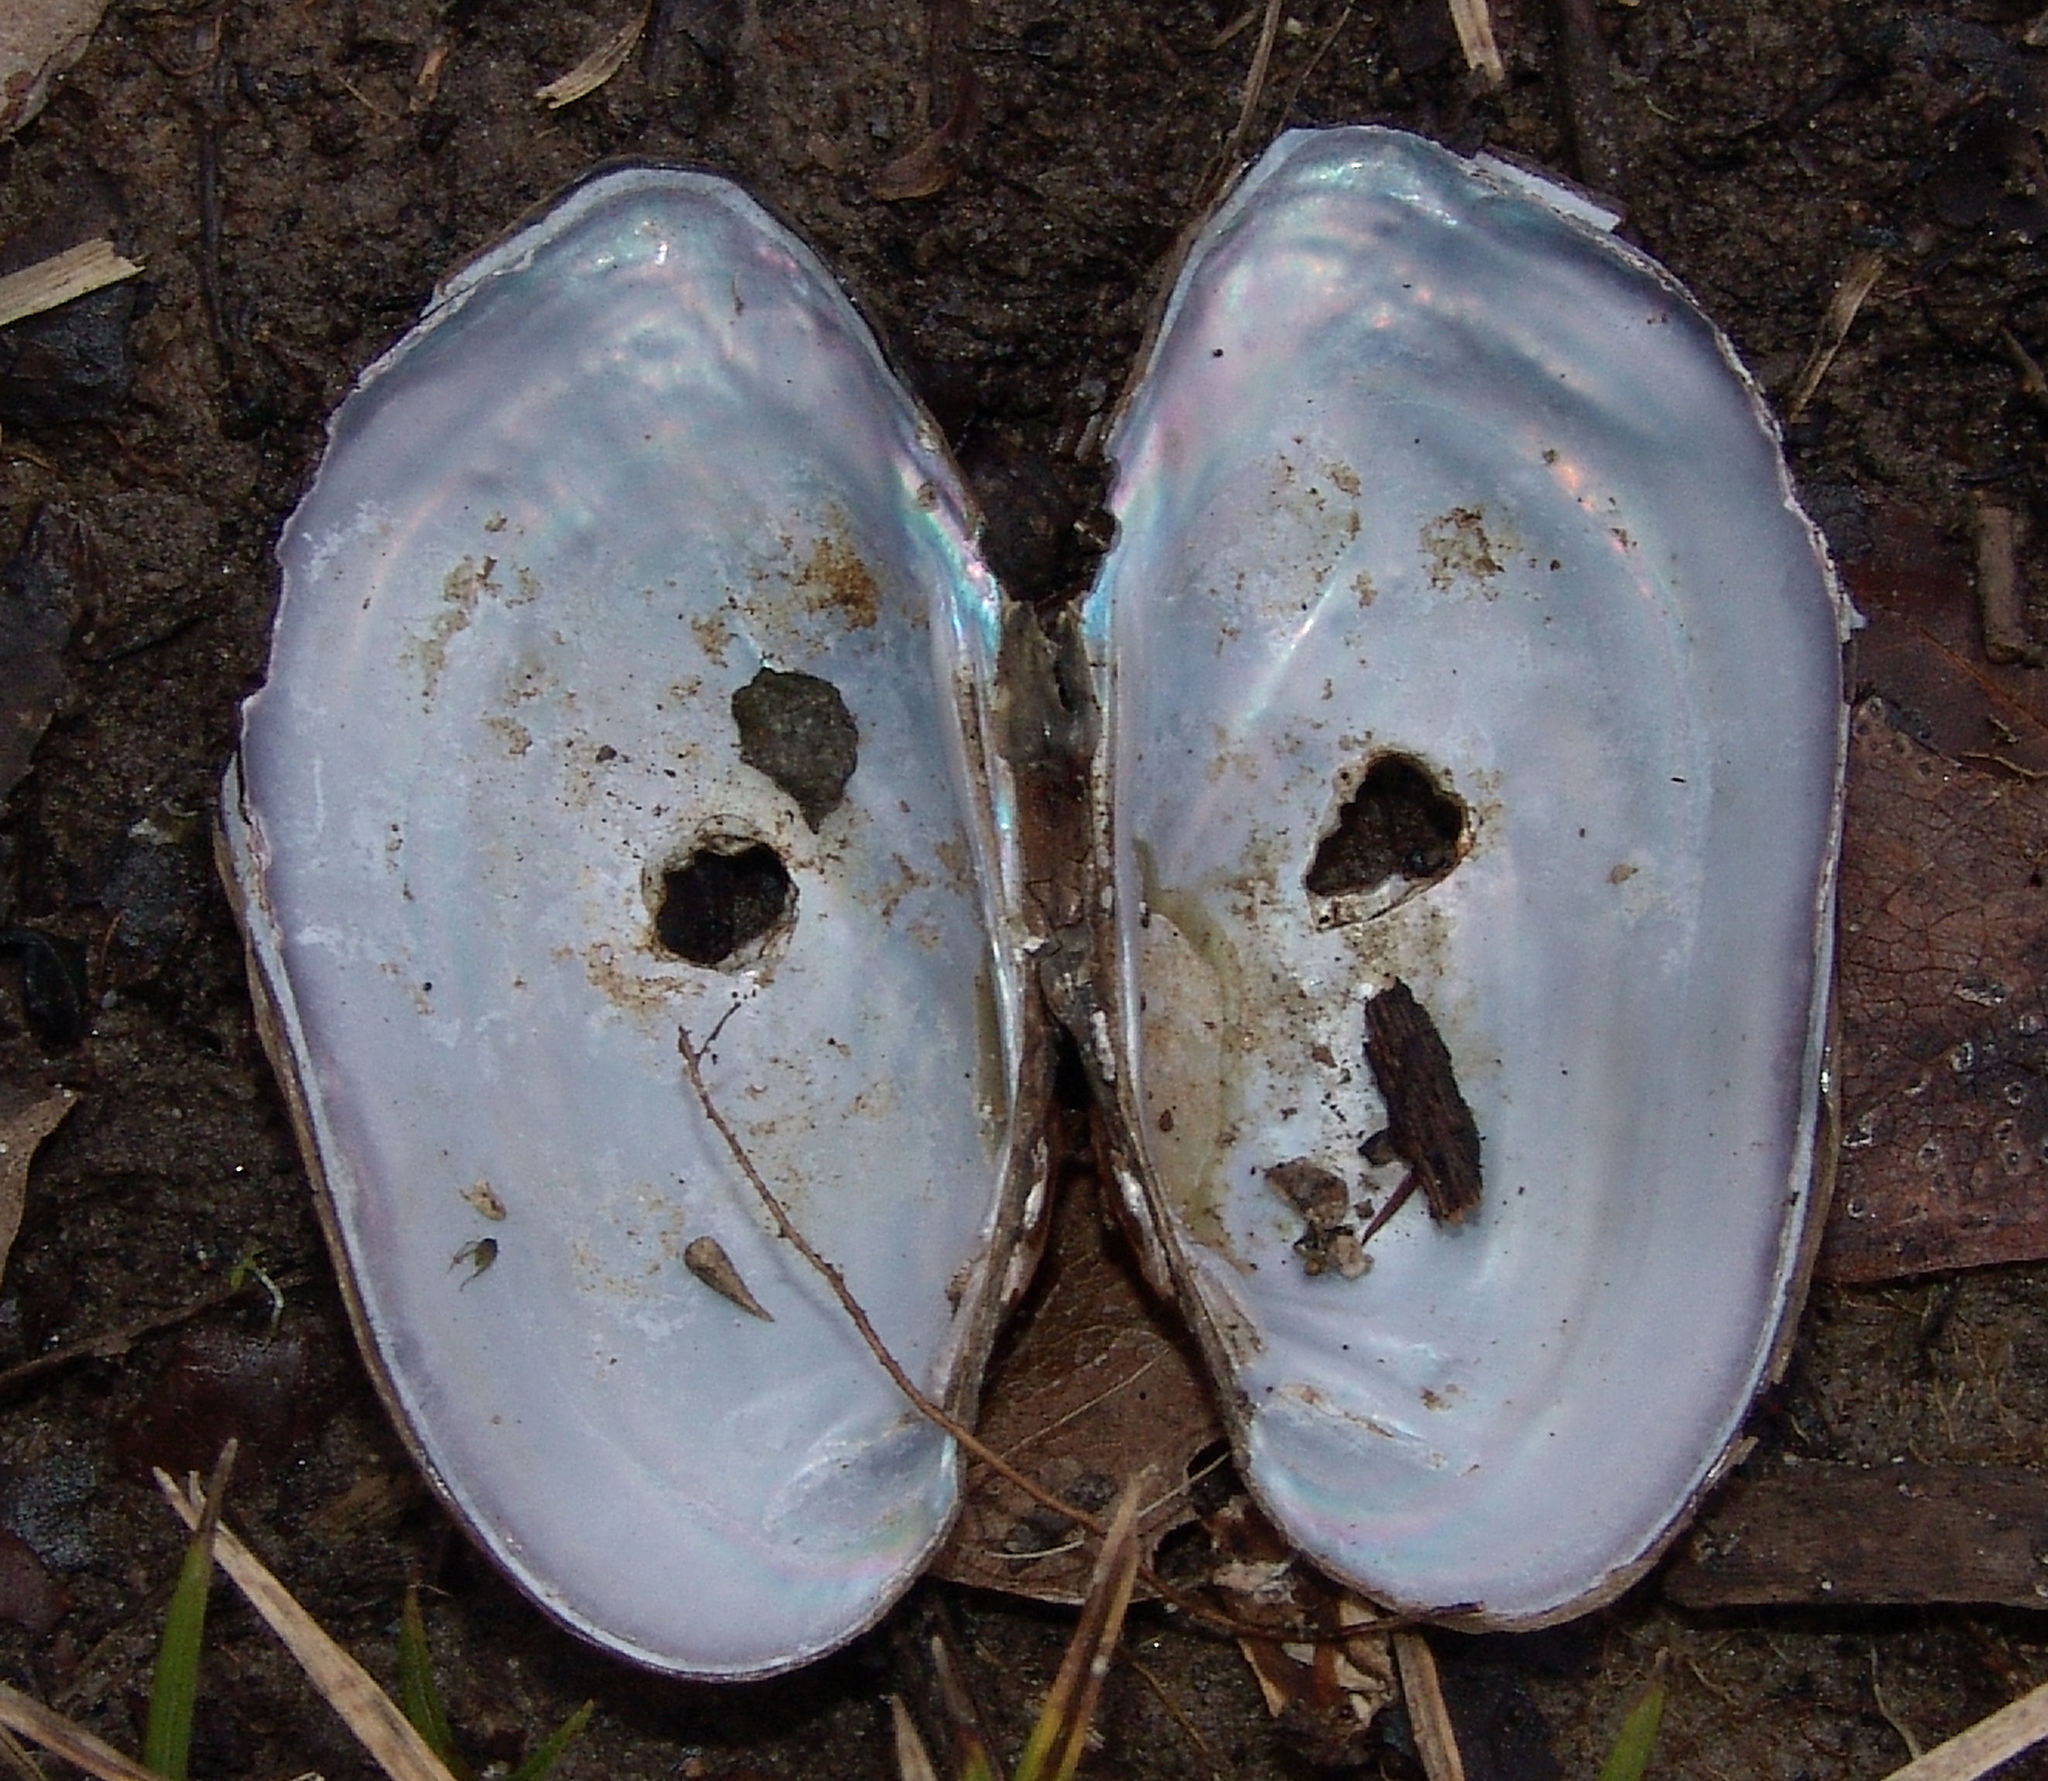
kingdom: Animalia
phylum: Mollusca
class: Bivalvia
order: Unionida
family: Unionidae
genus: Sagittunio
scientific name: Sagittunio subrostratus
